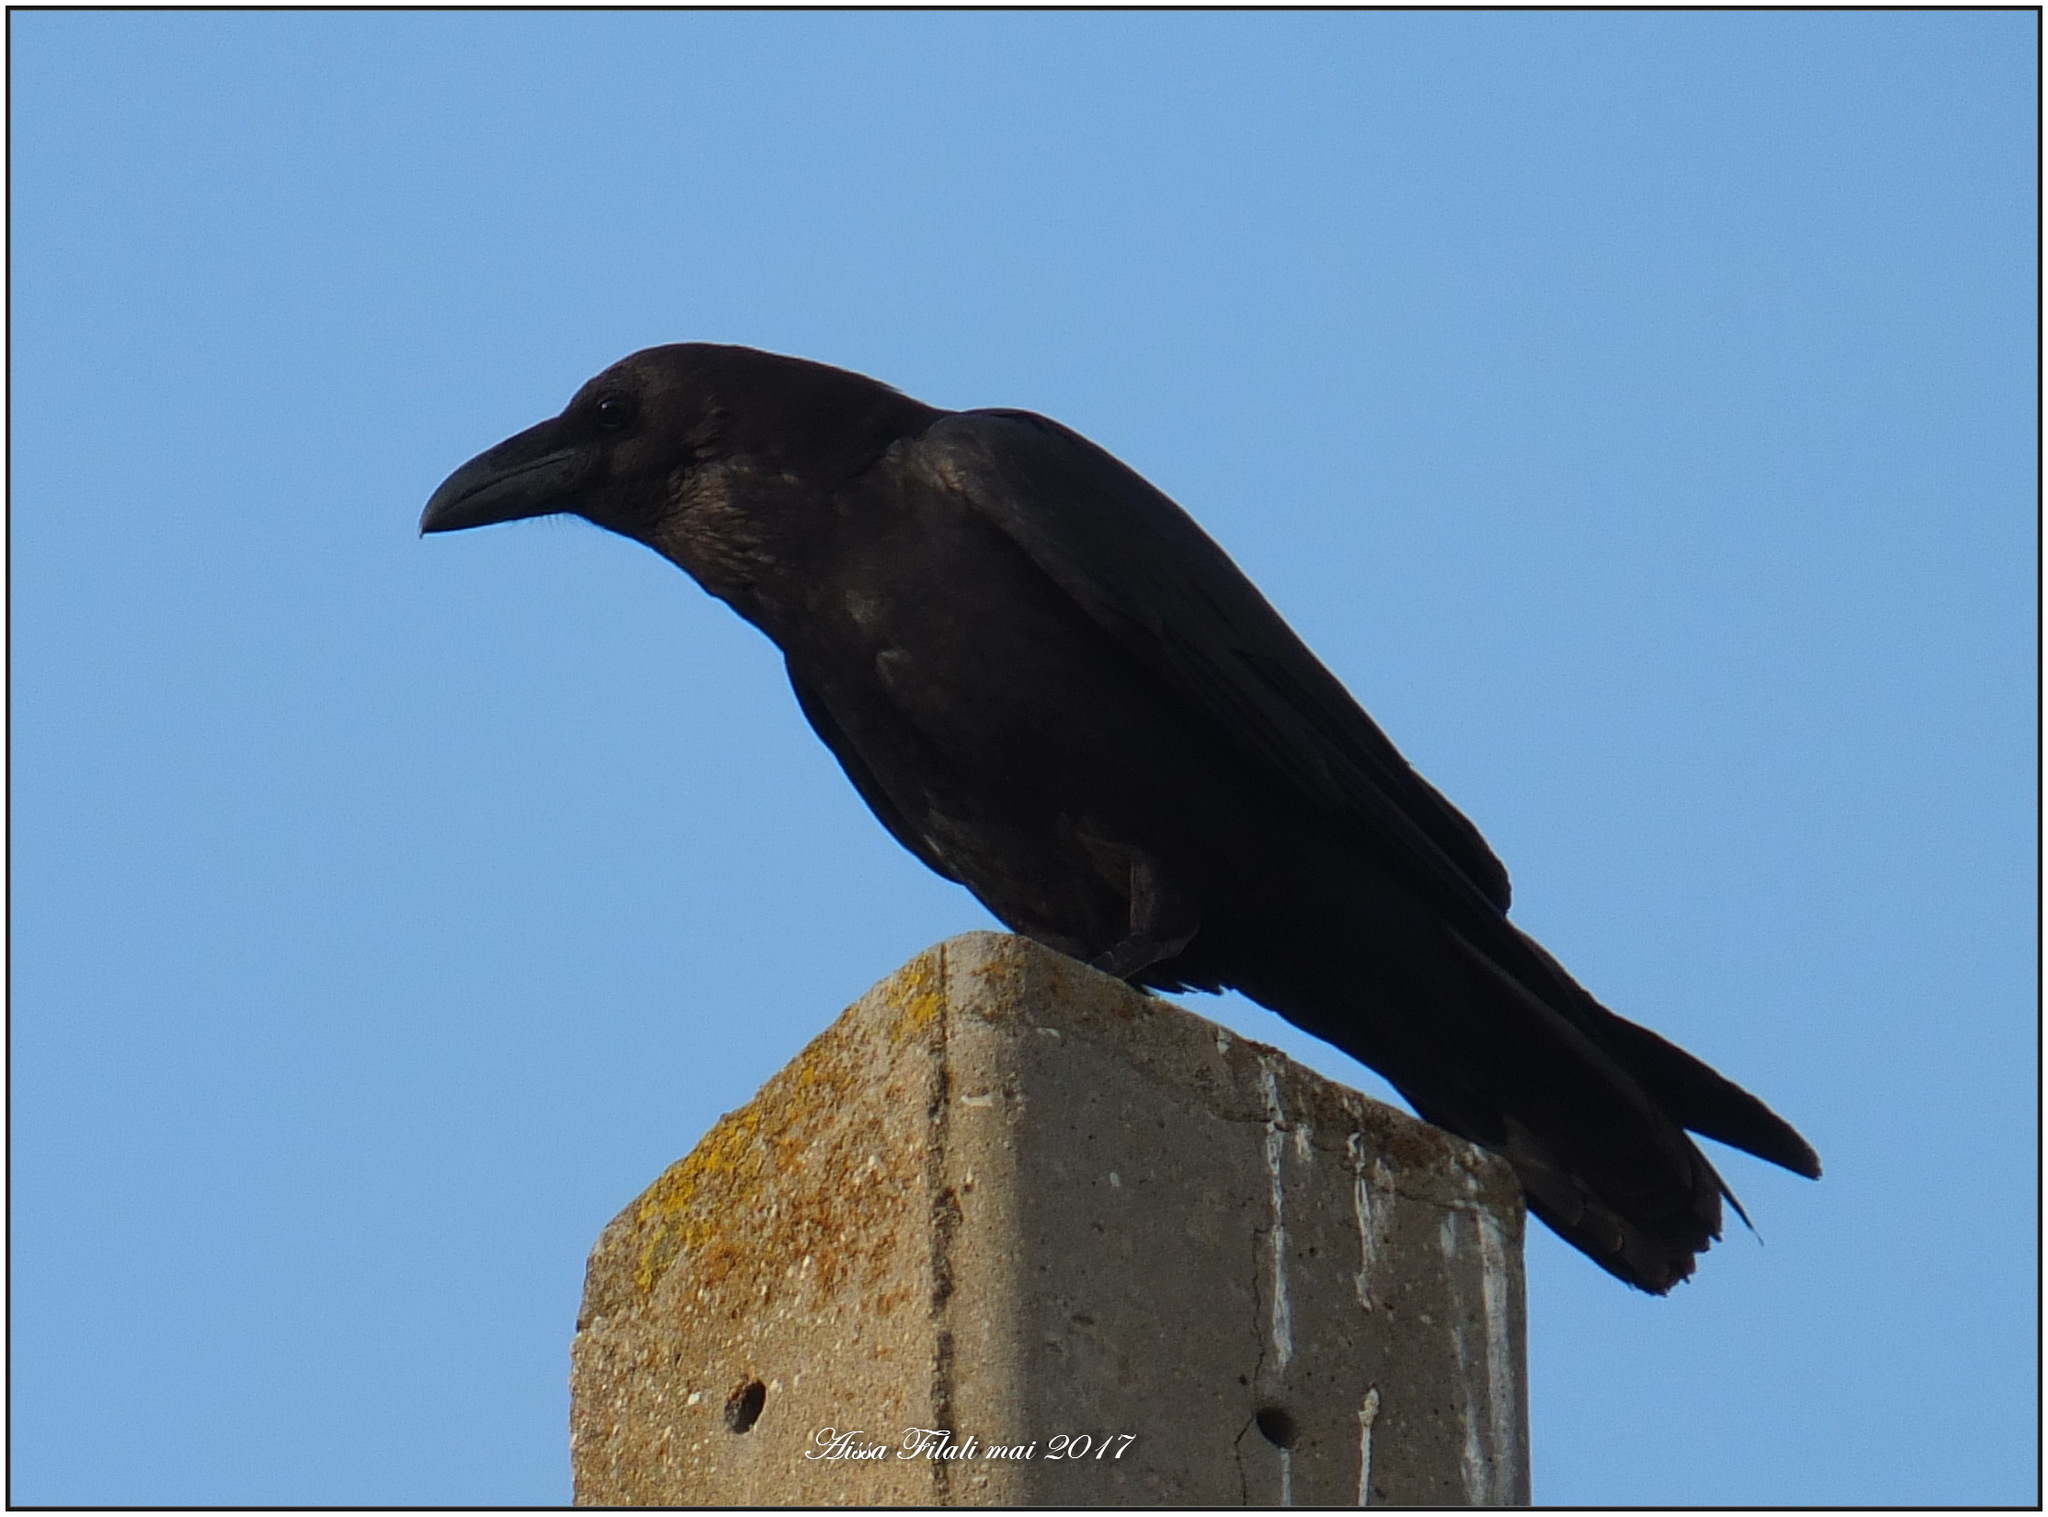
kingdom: Animalia
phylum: Chordata
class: Aves
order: Passeriformes
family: Corvidae
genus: Corvus
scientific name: Corvus corax
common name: Common raven
